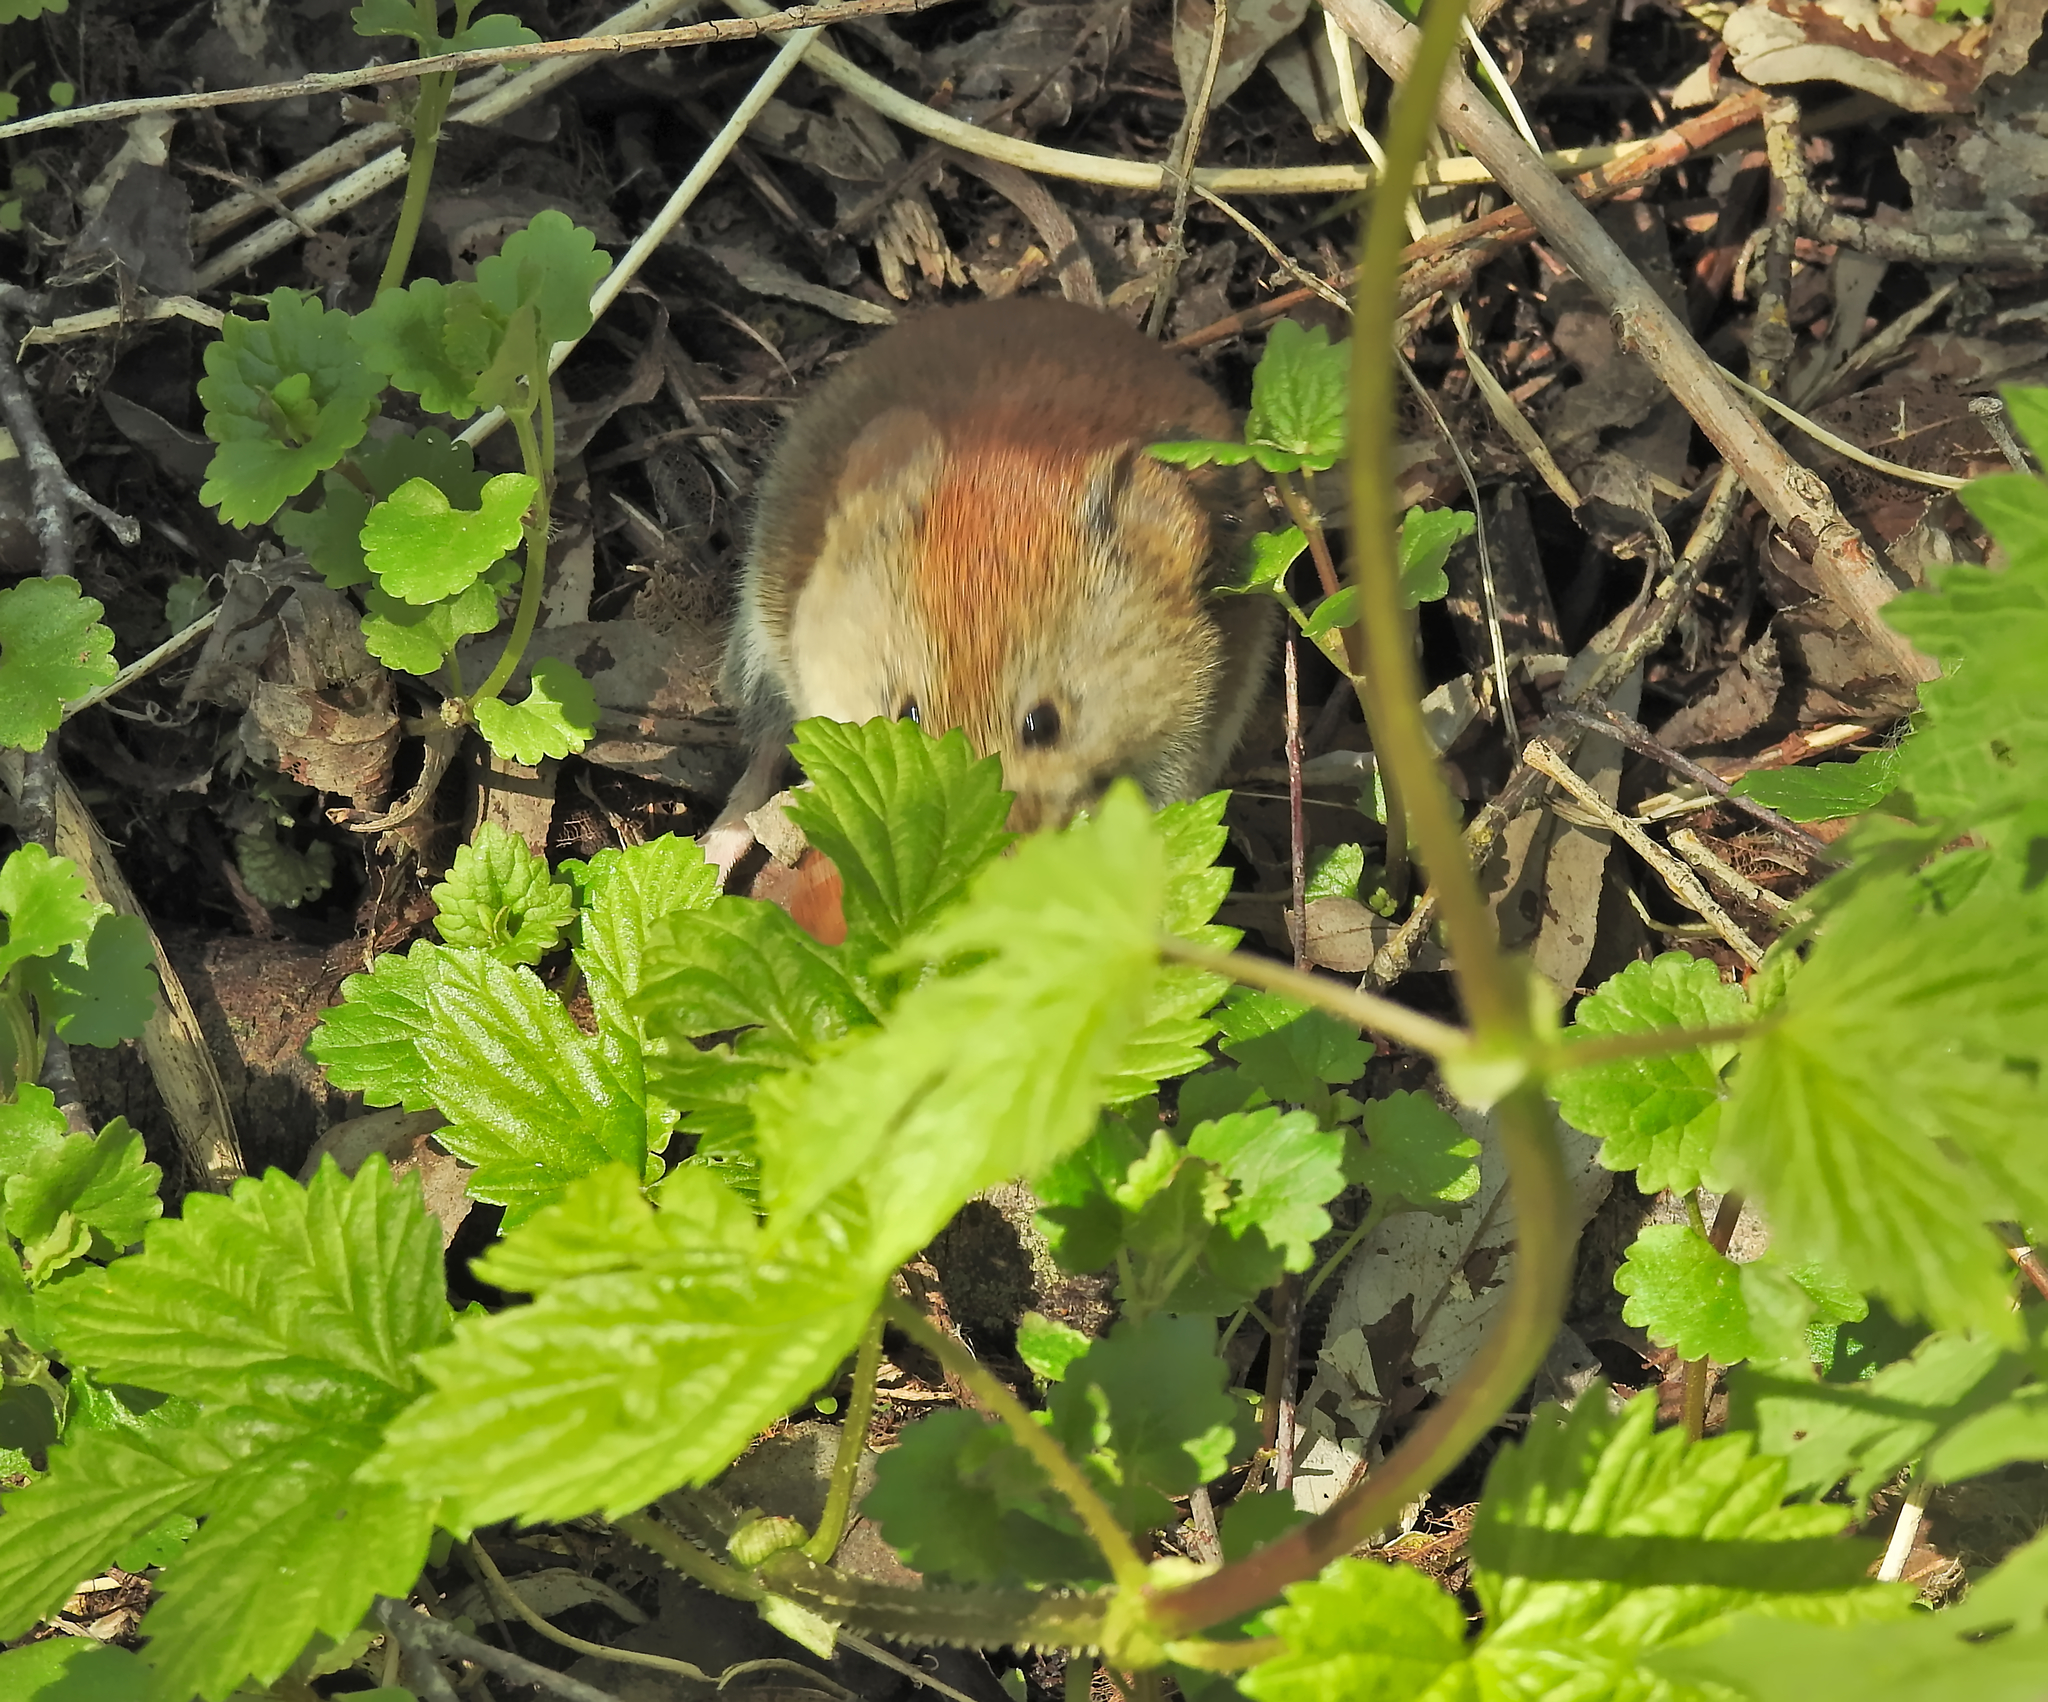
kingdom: Animalia
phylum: Chordata
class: Mammalia
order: Rodentia
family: Cricetidae
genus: Myodes
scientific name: Myodes glareolus
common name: Bank vole
